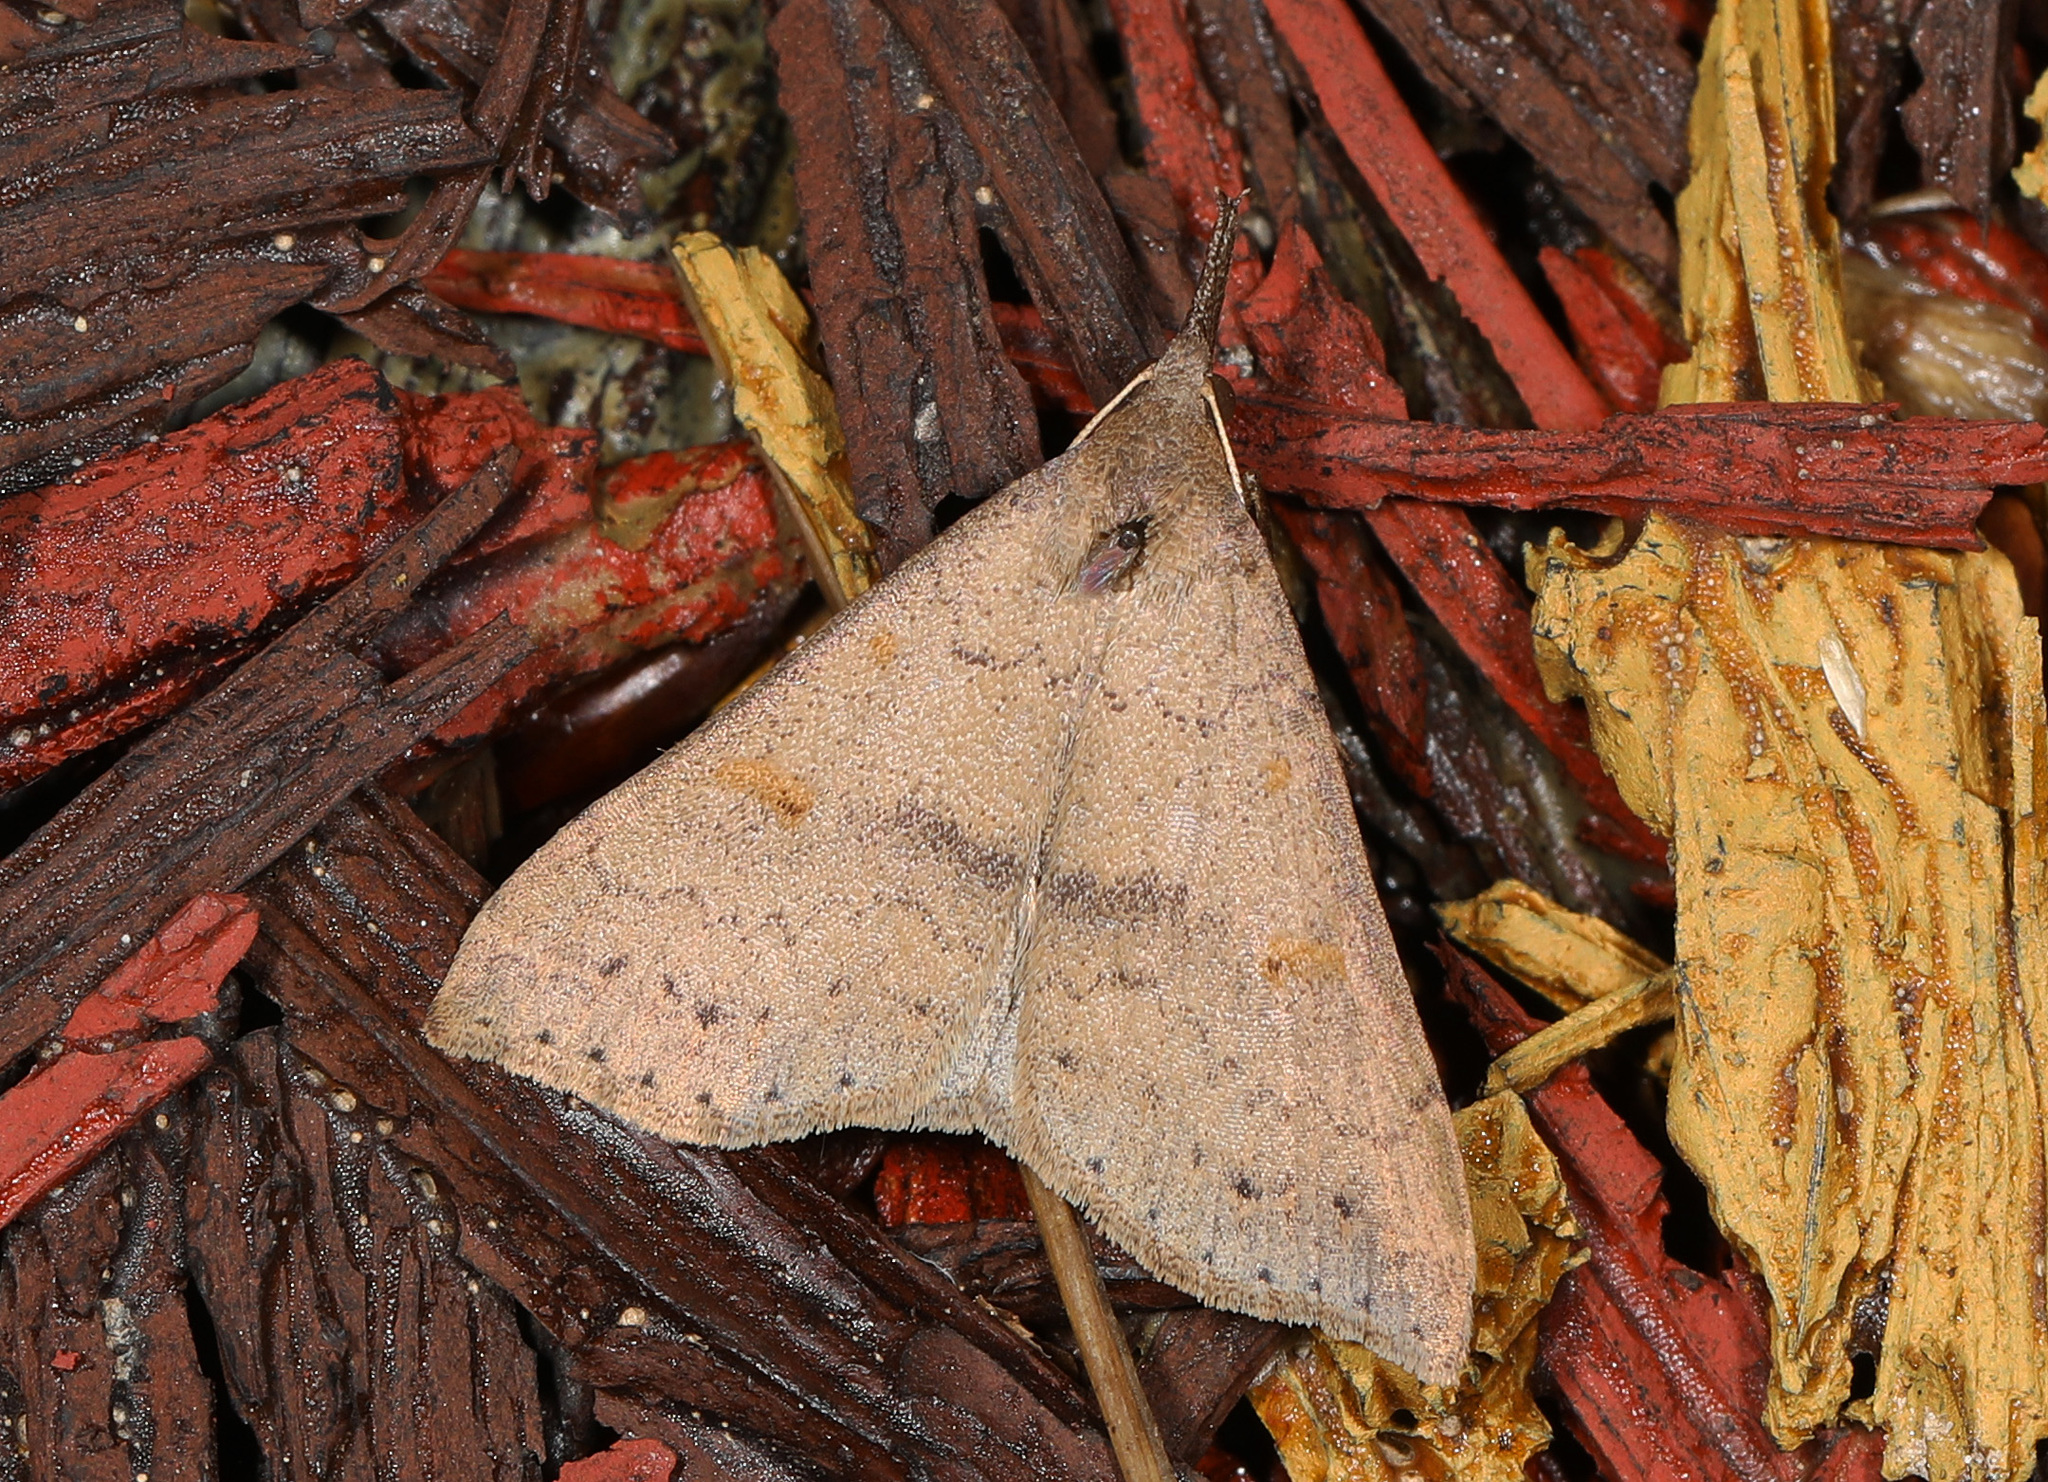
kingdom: Animalia
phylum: Arthropoda
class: Insecta
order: Lepidoptera
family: Erebidae
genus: Renia
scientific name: Renia adspergillus
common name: Speckled renia moth
